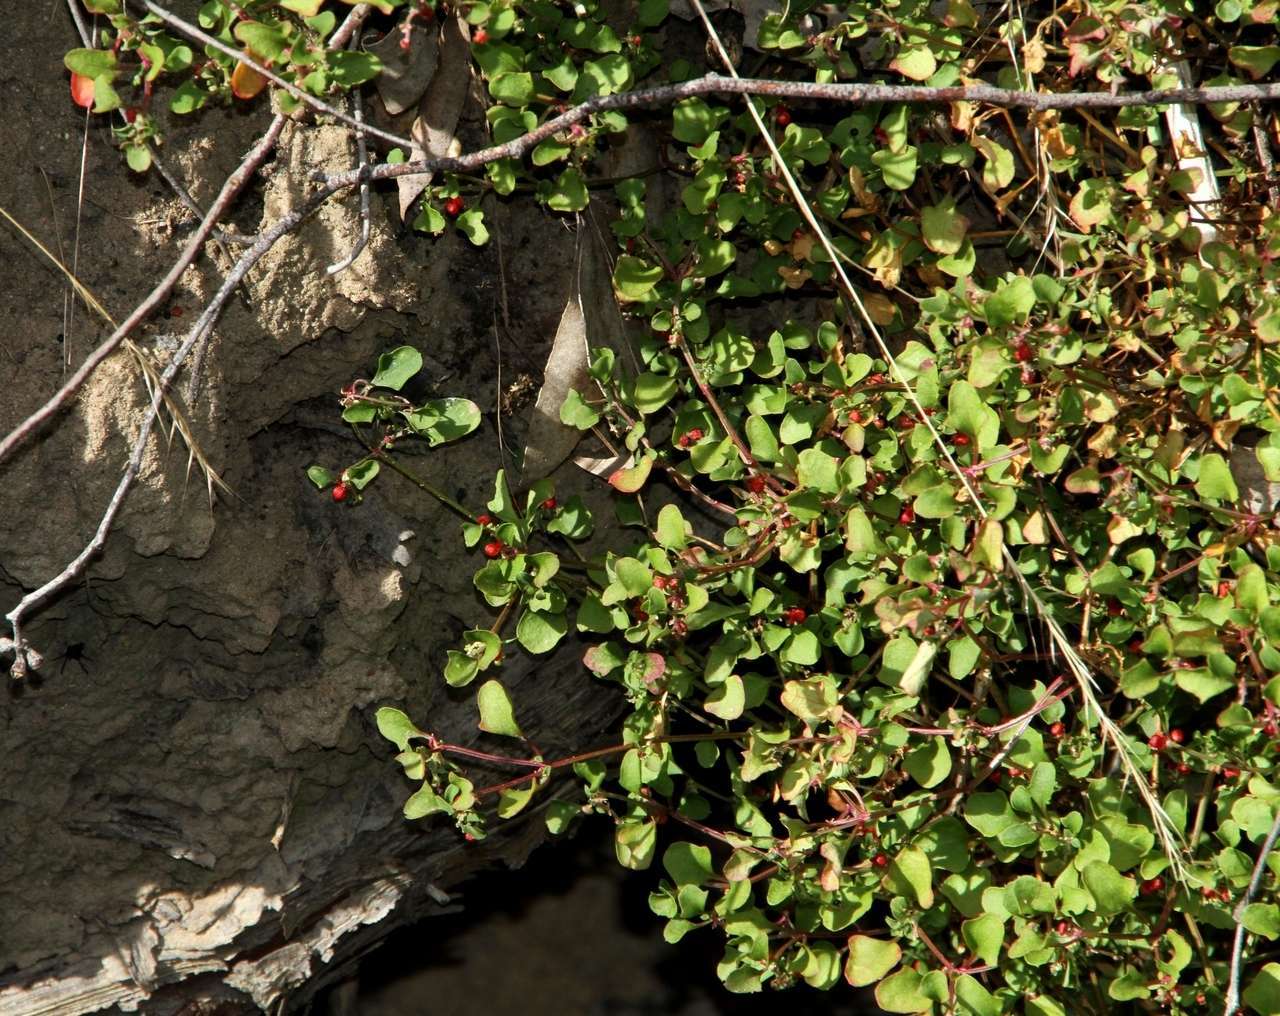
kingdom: Plantae
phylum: Tracheophyta
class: Magnoliopsida
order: Caryophyllales
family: Amaranthaceae
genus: Chenopodium
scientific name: Chenopodium robertianum
